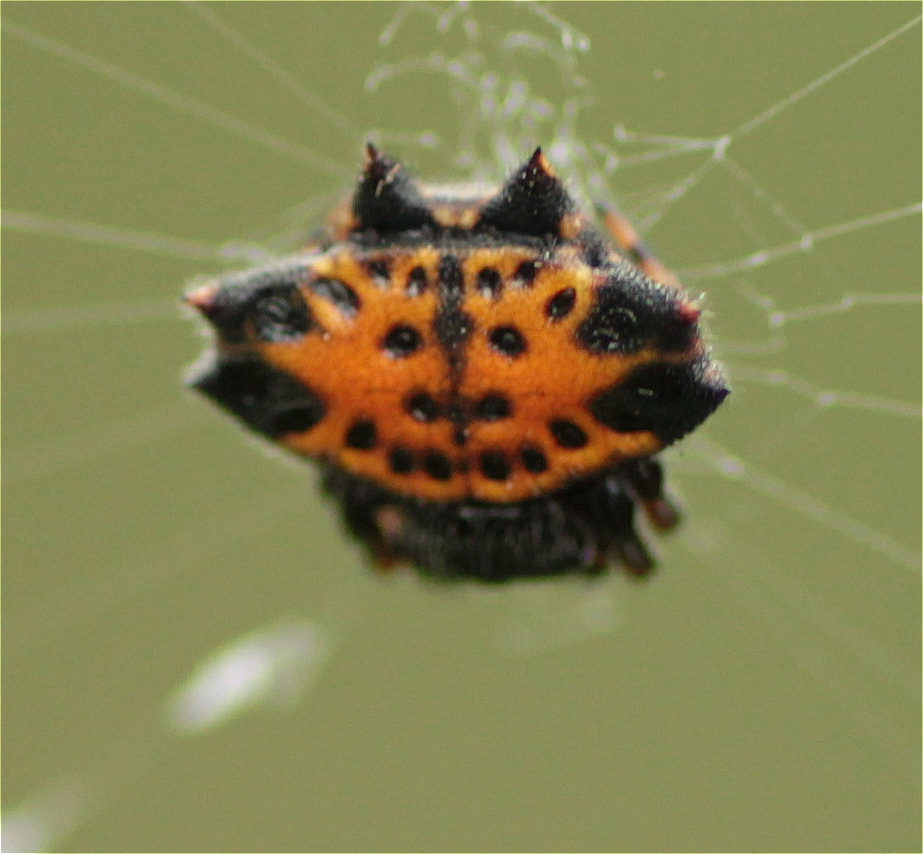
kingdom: Animalia
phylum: Arthropoda
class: Arachnida
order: Araneae
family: Araneidae
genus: Gasteracantha
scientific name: Gasteracantha cancriformis
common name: Orb weavers
